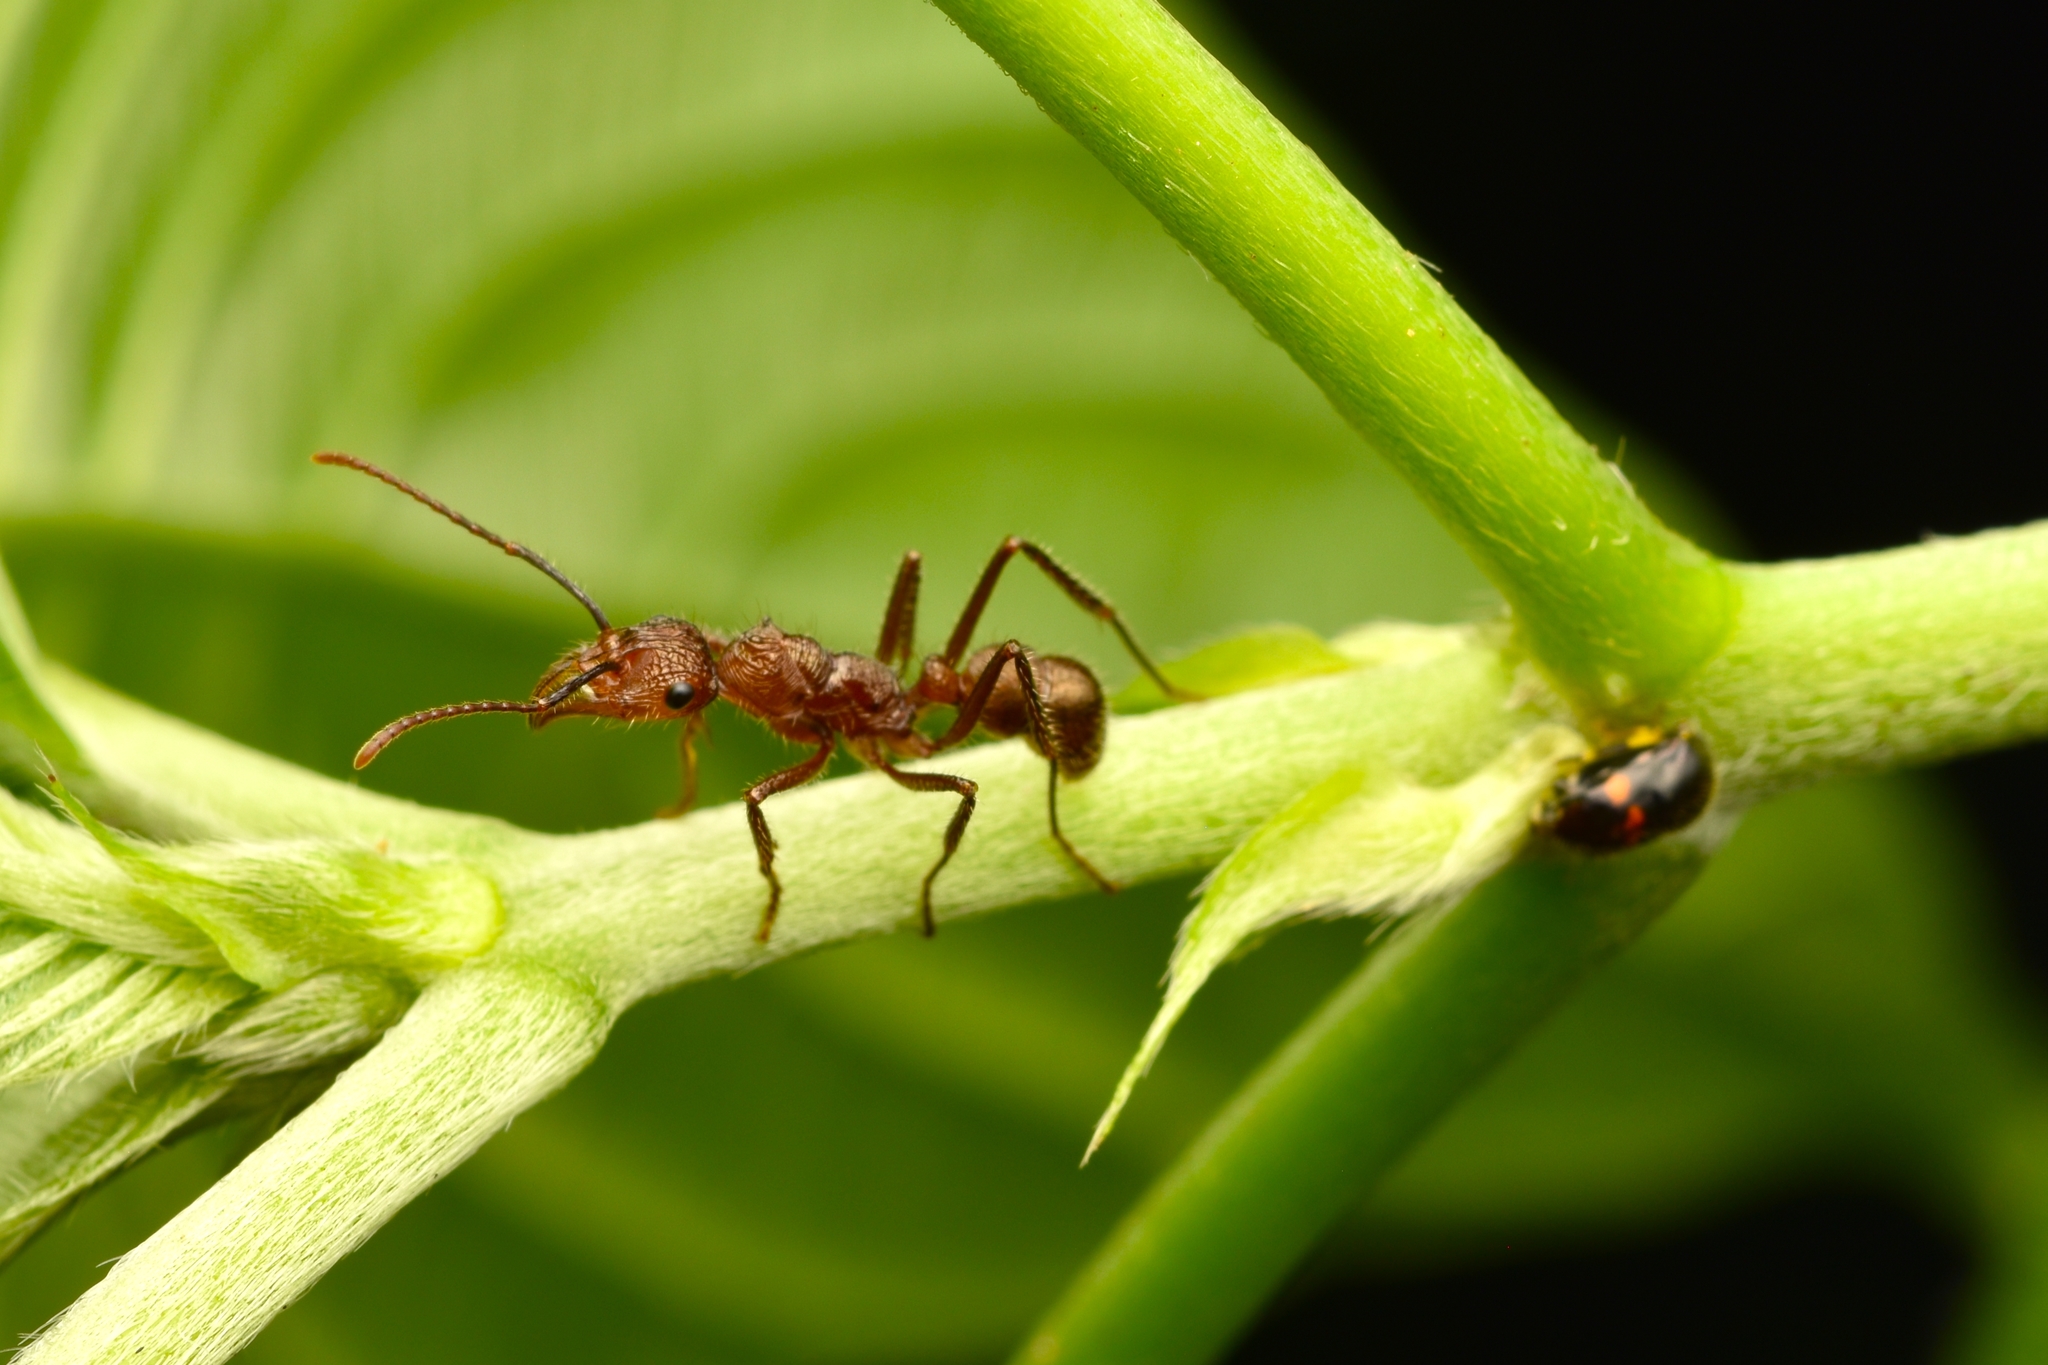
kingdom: Animalia
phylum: Arthropoda
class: Insecta
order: Hymenoptera
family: Formicidae
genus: Ectatomma
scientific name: Ectatomma tuberculatum
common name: Ant
